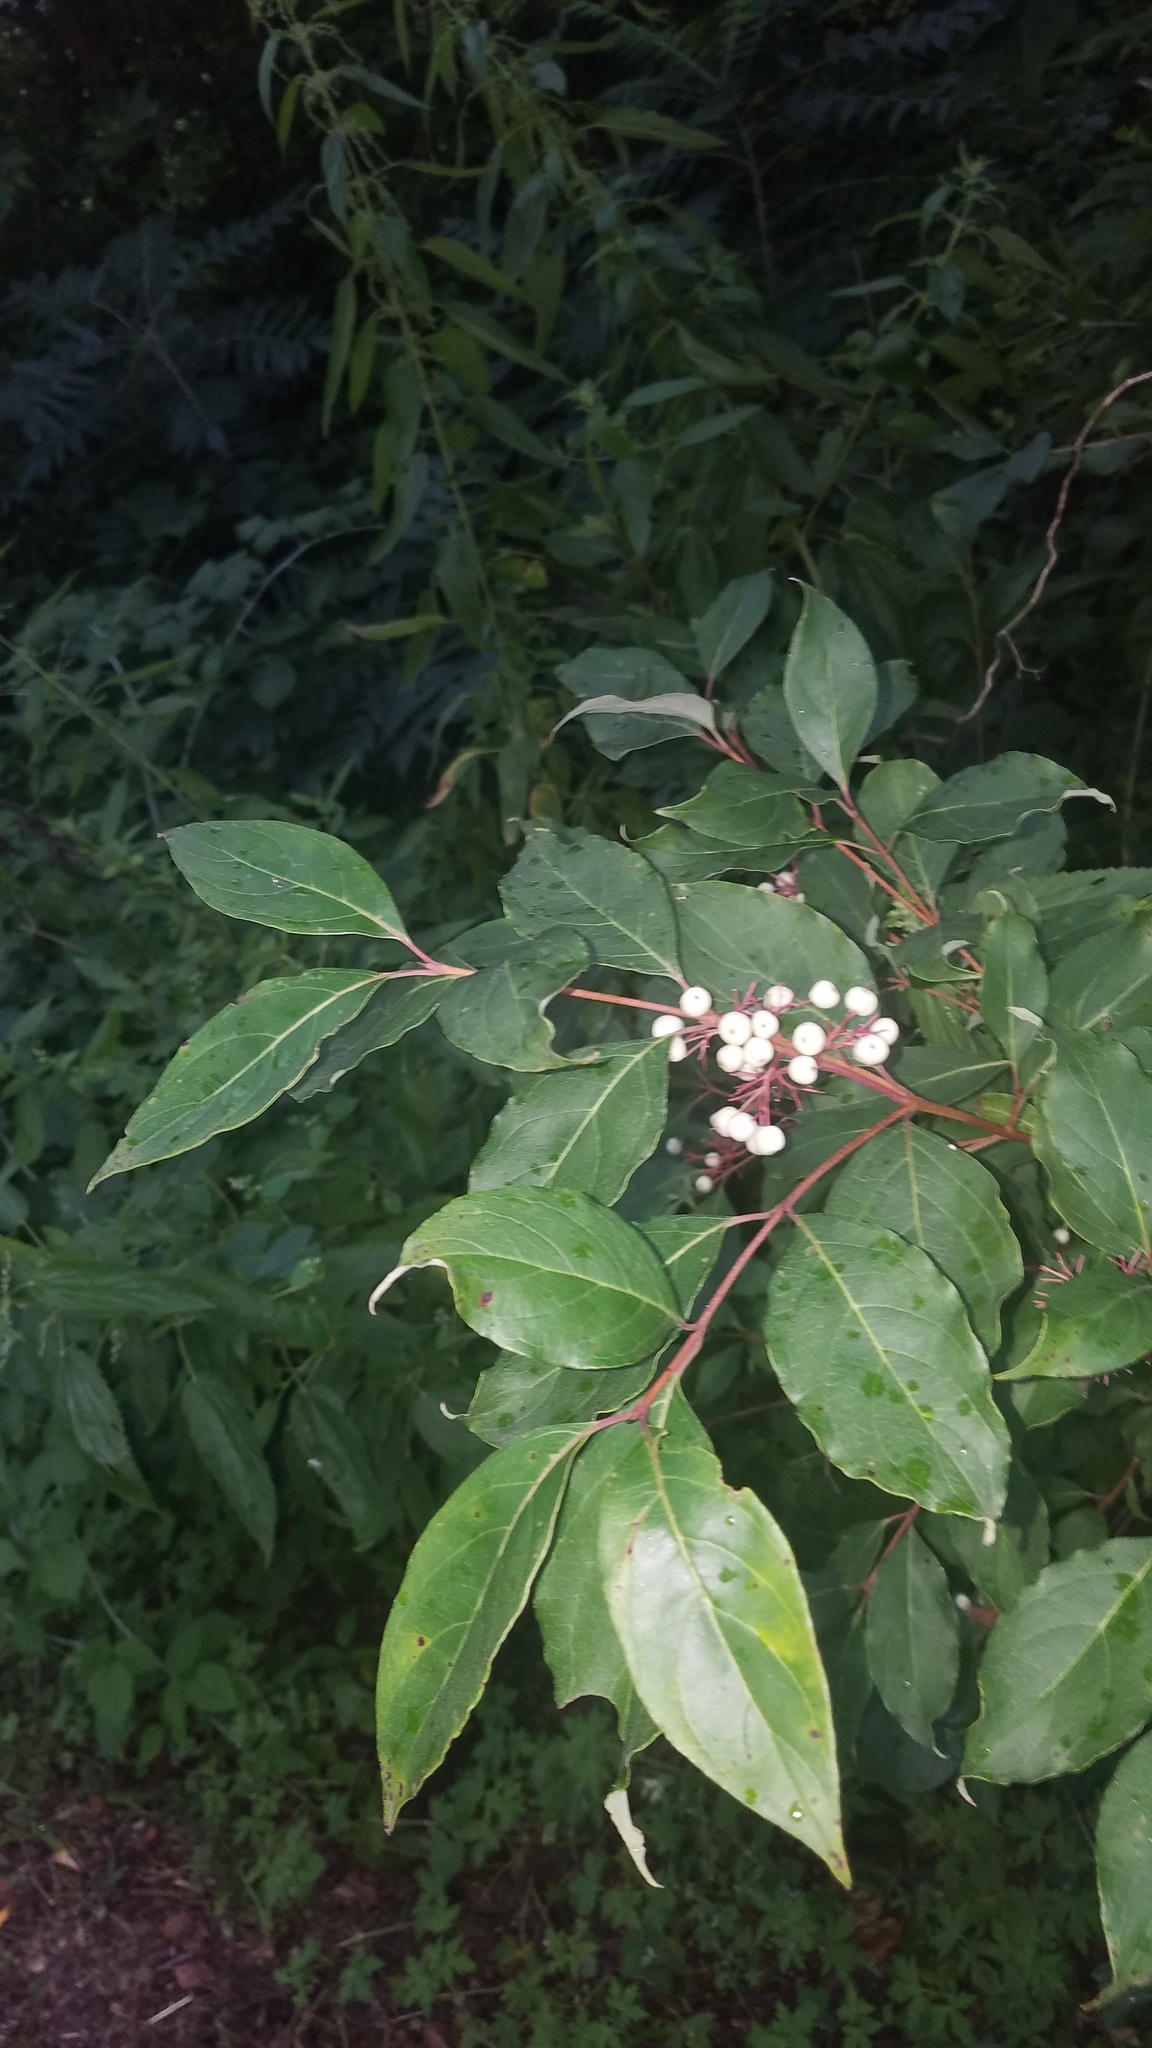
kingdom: Plantae
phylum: Tracheophyta
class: Magnoliopsida
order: Cornales
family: Cornaceae
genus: Cornus
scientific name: Cornus racemosa
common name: Panicled dogwood
